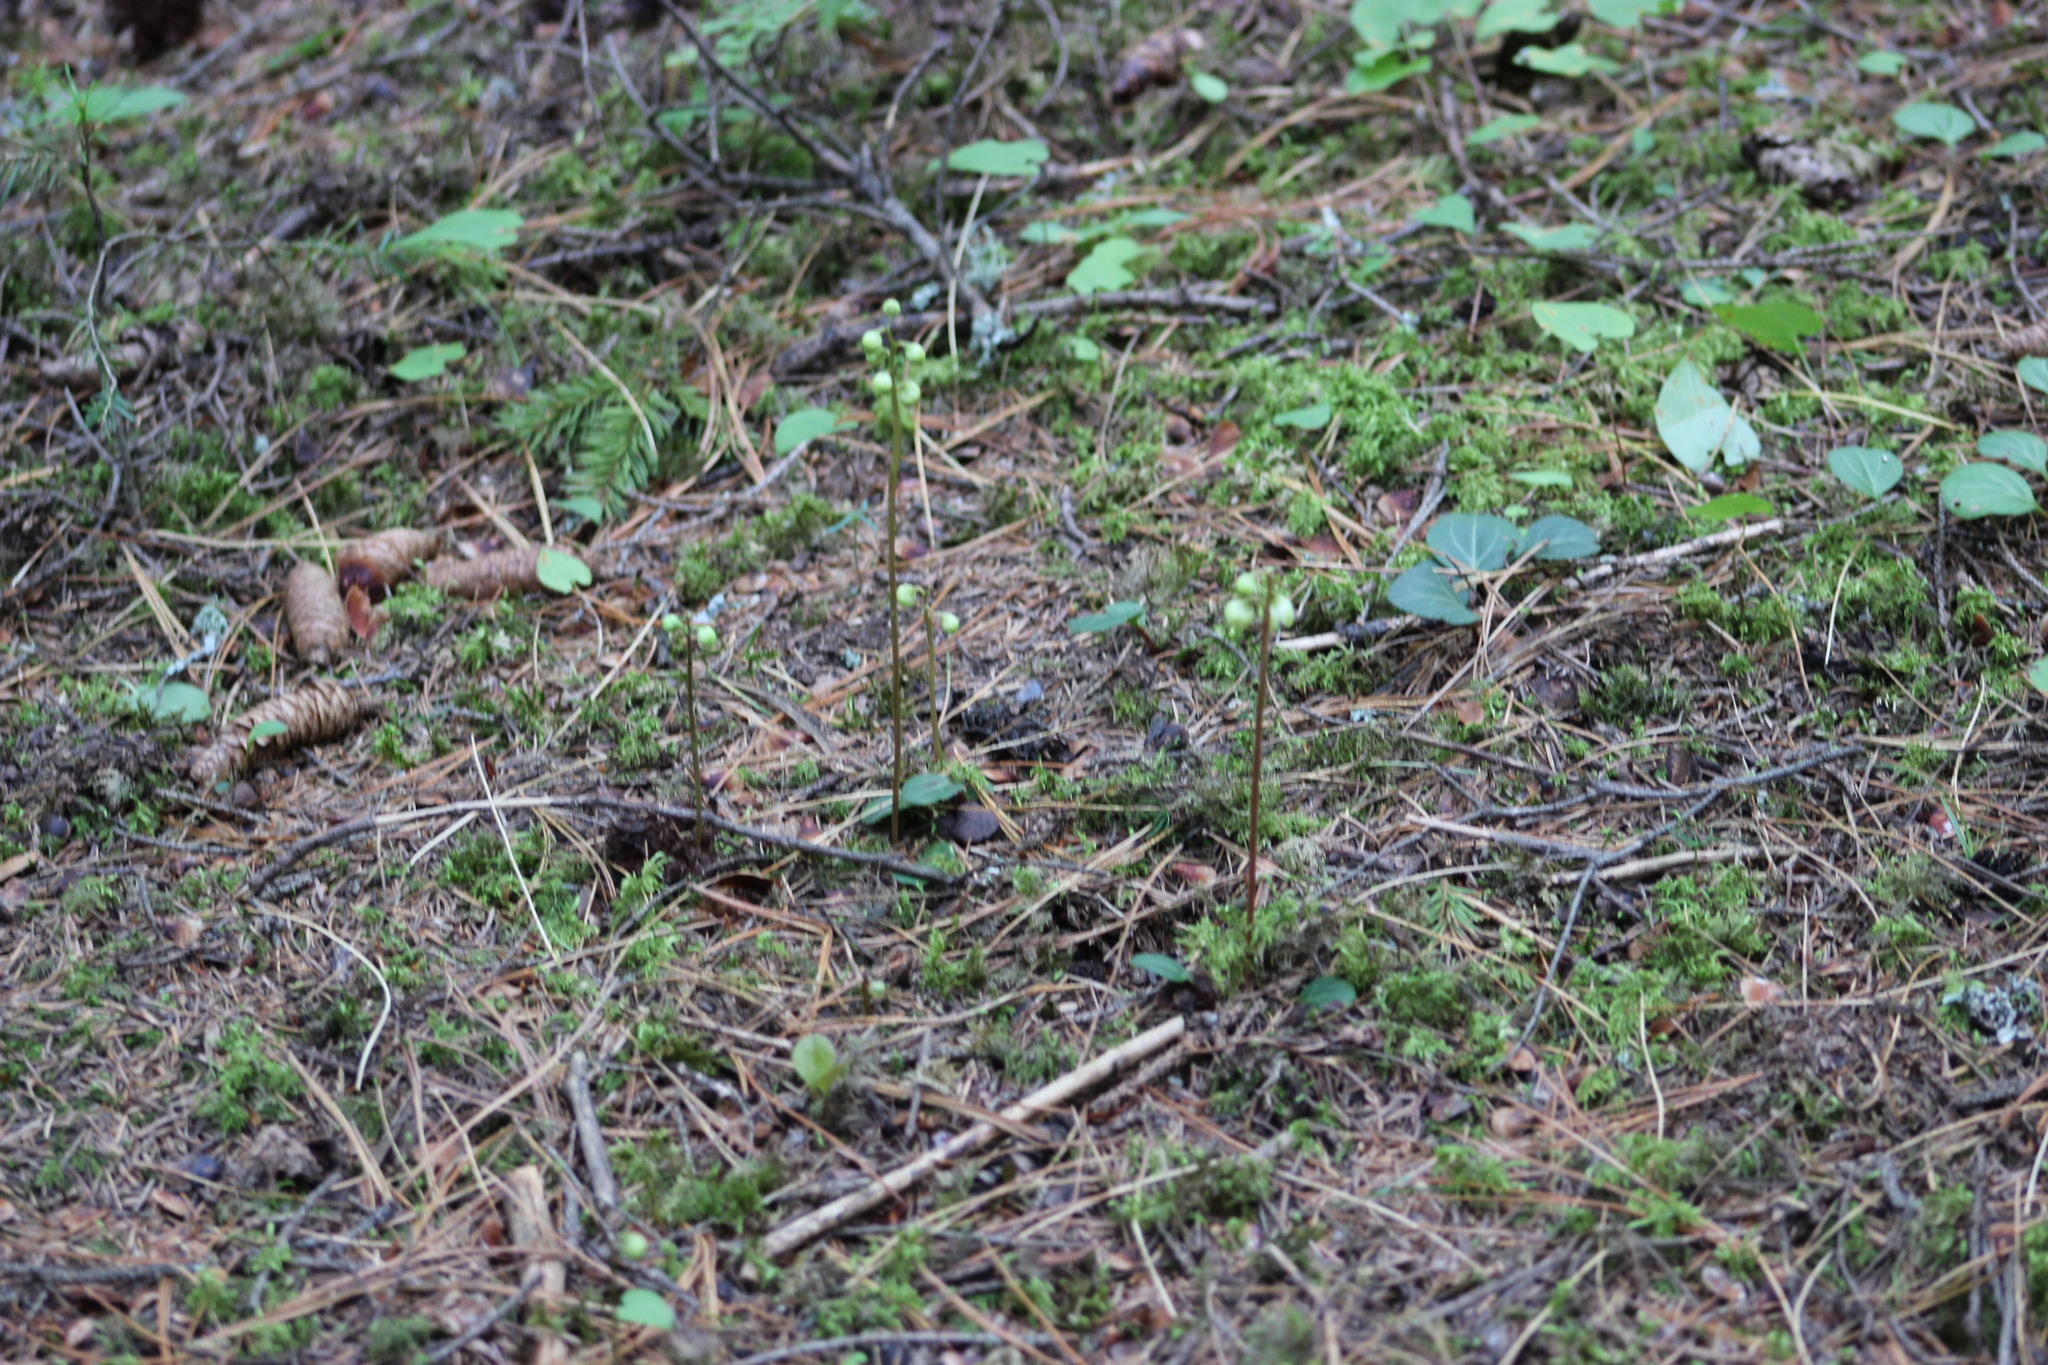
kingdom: Plantae
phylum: Tracheophyta
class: Magnoliopsida
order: Ericales
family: Ericaceae
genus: Pyrola
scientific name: Pyrola chlorantha
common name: Green wintergreen
